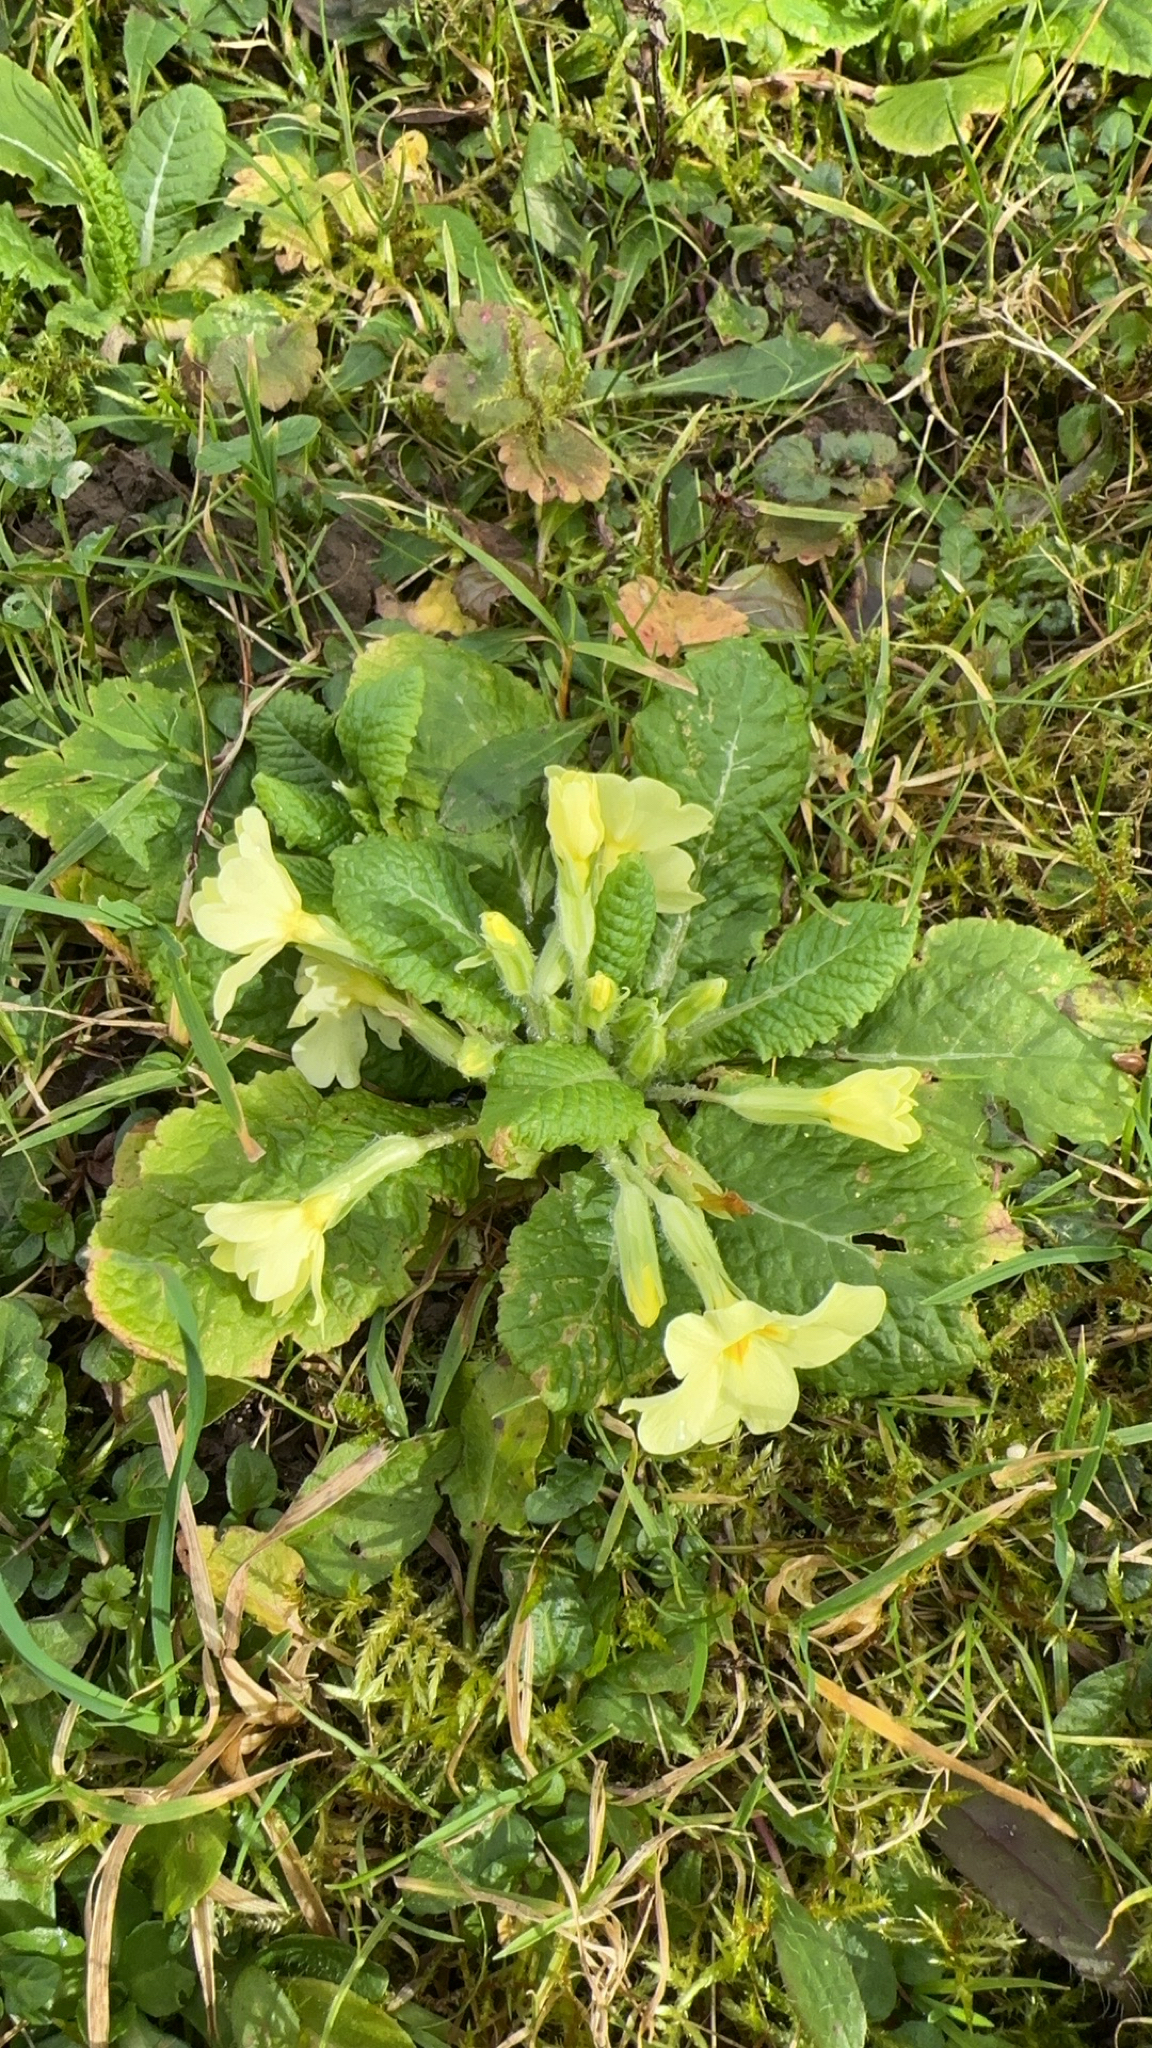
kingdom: Plantae
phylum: Tracheophyta
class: Magnoliopsida
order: Ericales
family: Primulaceae
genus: Primula
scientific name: Primula vulgaris
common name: Primrose
